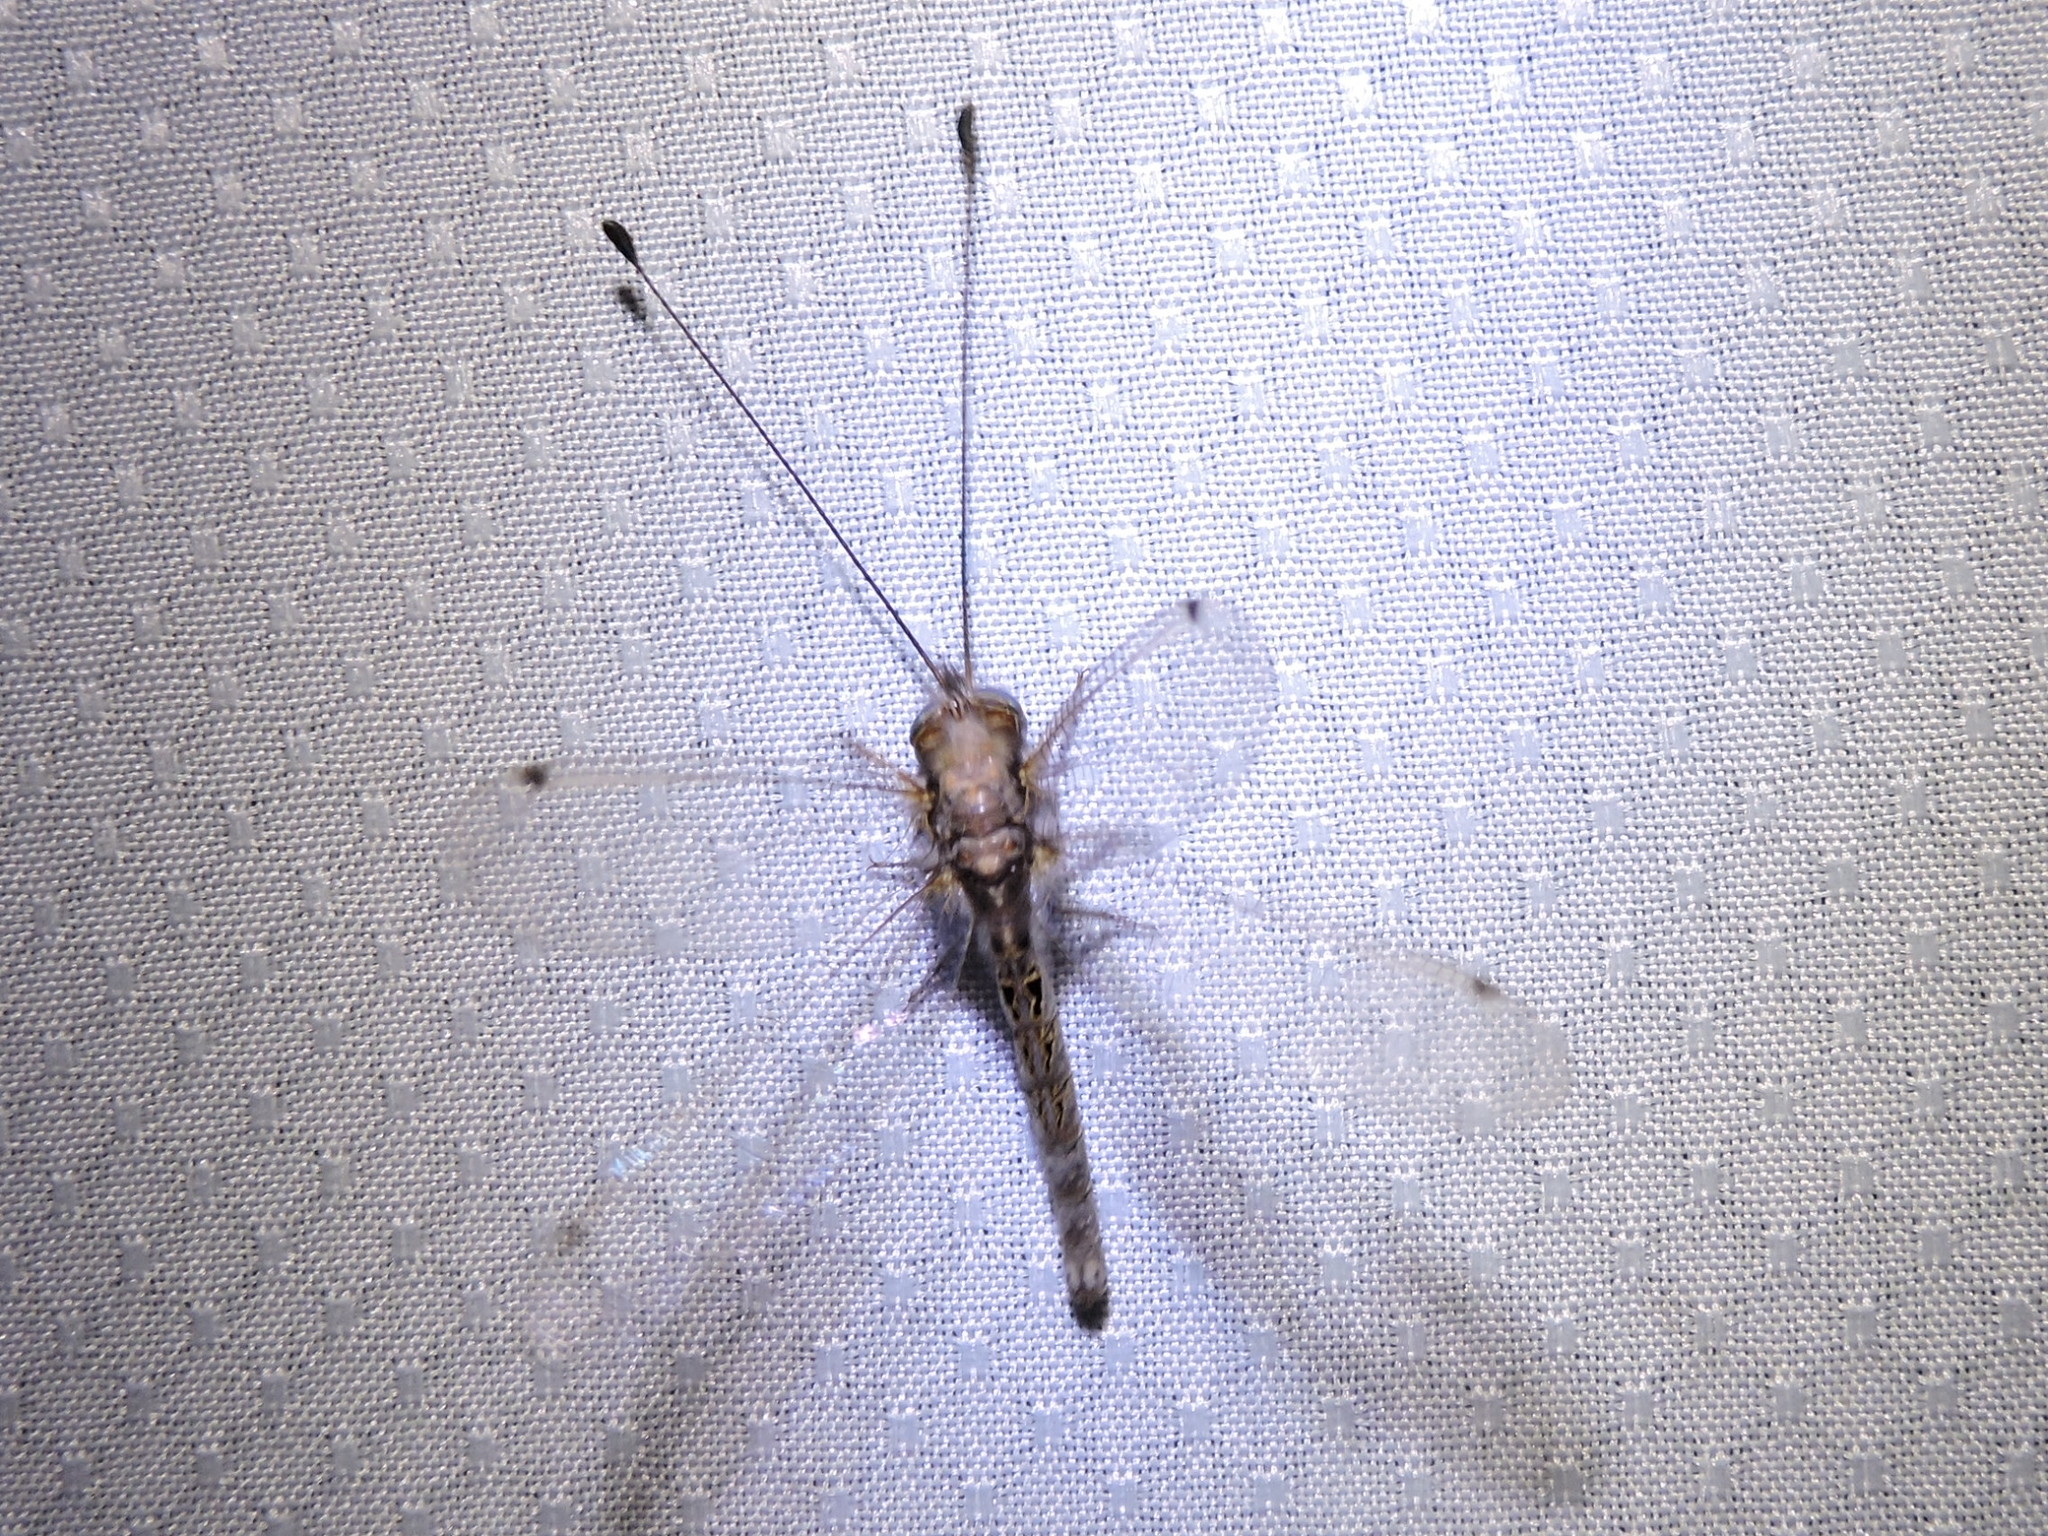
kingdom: Animalia
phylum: Arthropoda
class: Insecta
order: Neuroptera
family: Ascalaphidae
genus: Ululodes
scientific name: Ululodes macleayanus
